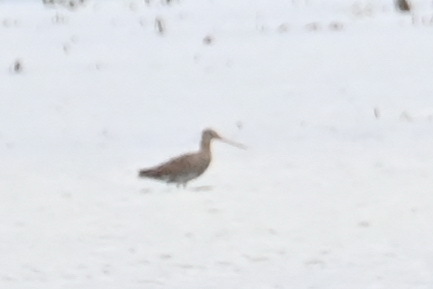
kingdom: Animalia
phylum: Chordata
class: Aves
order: Charadriiformes
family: Scolopacidae
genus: Limosa
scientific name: Limosa limosa
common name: Black-tailed godwit
